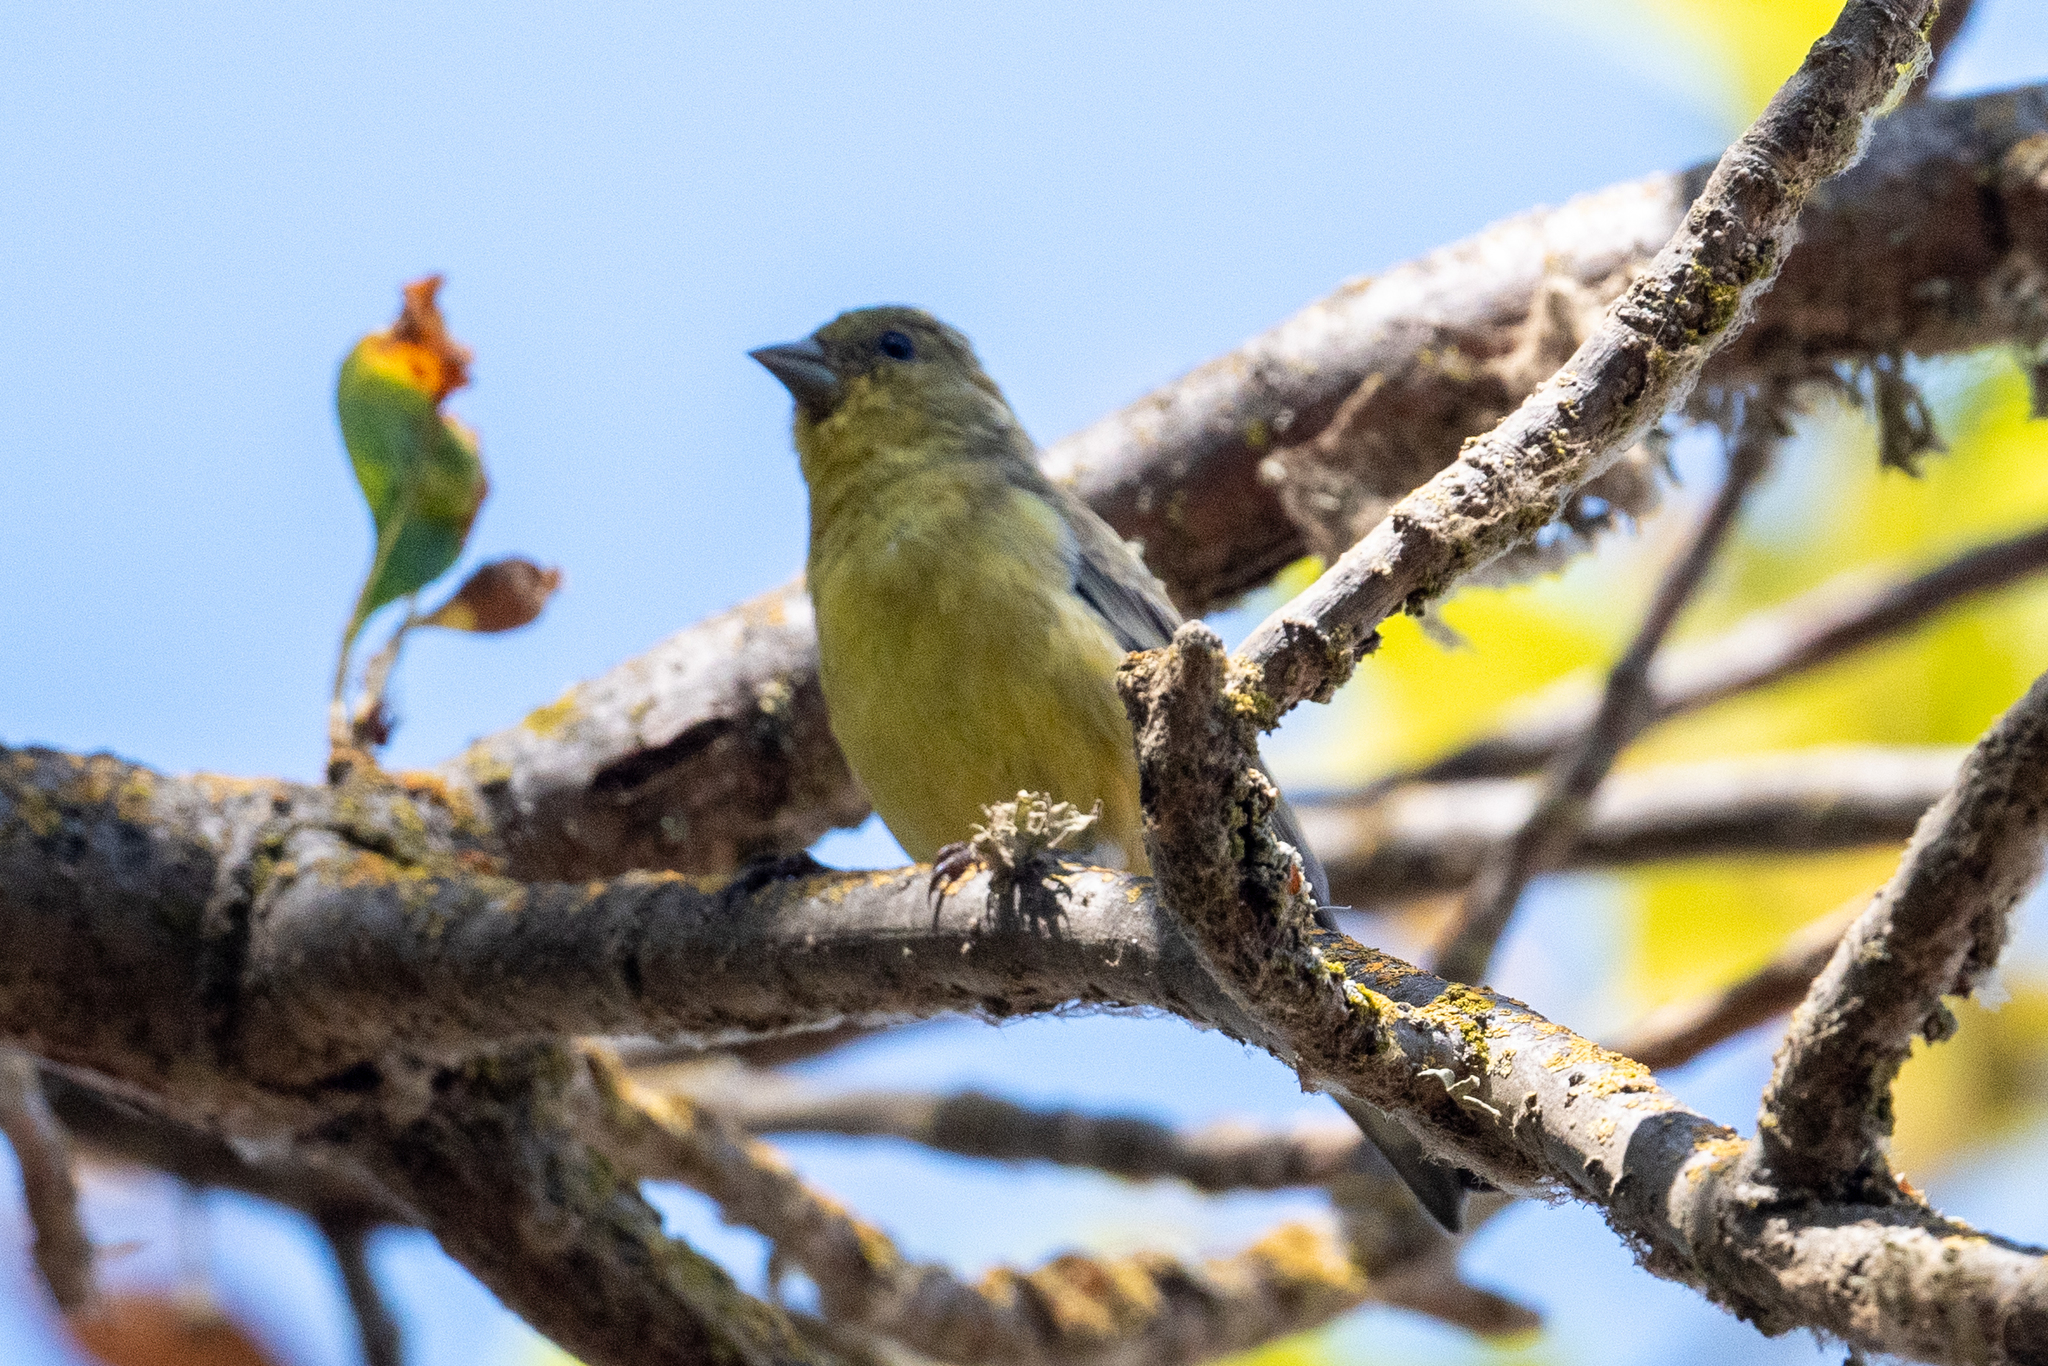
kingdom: Animalia
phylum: Chordata
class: Aves
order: Passeriformes
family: Fringillidae
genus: Spinus
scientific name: Spinus psaltria
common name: Lesser goldfinch
